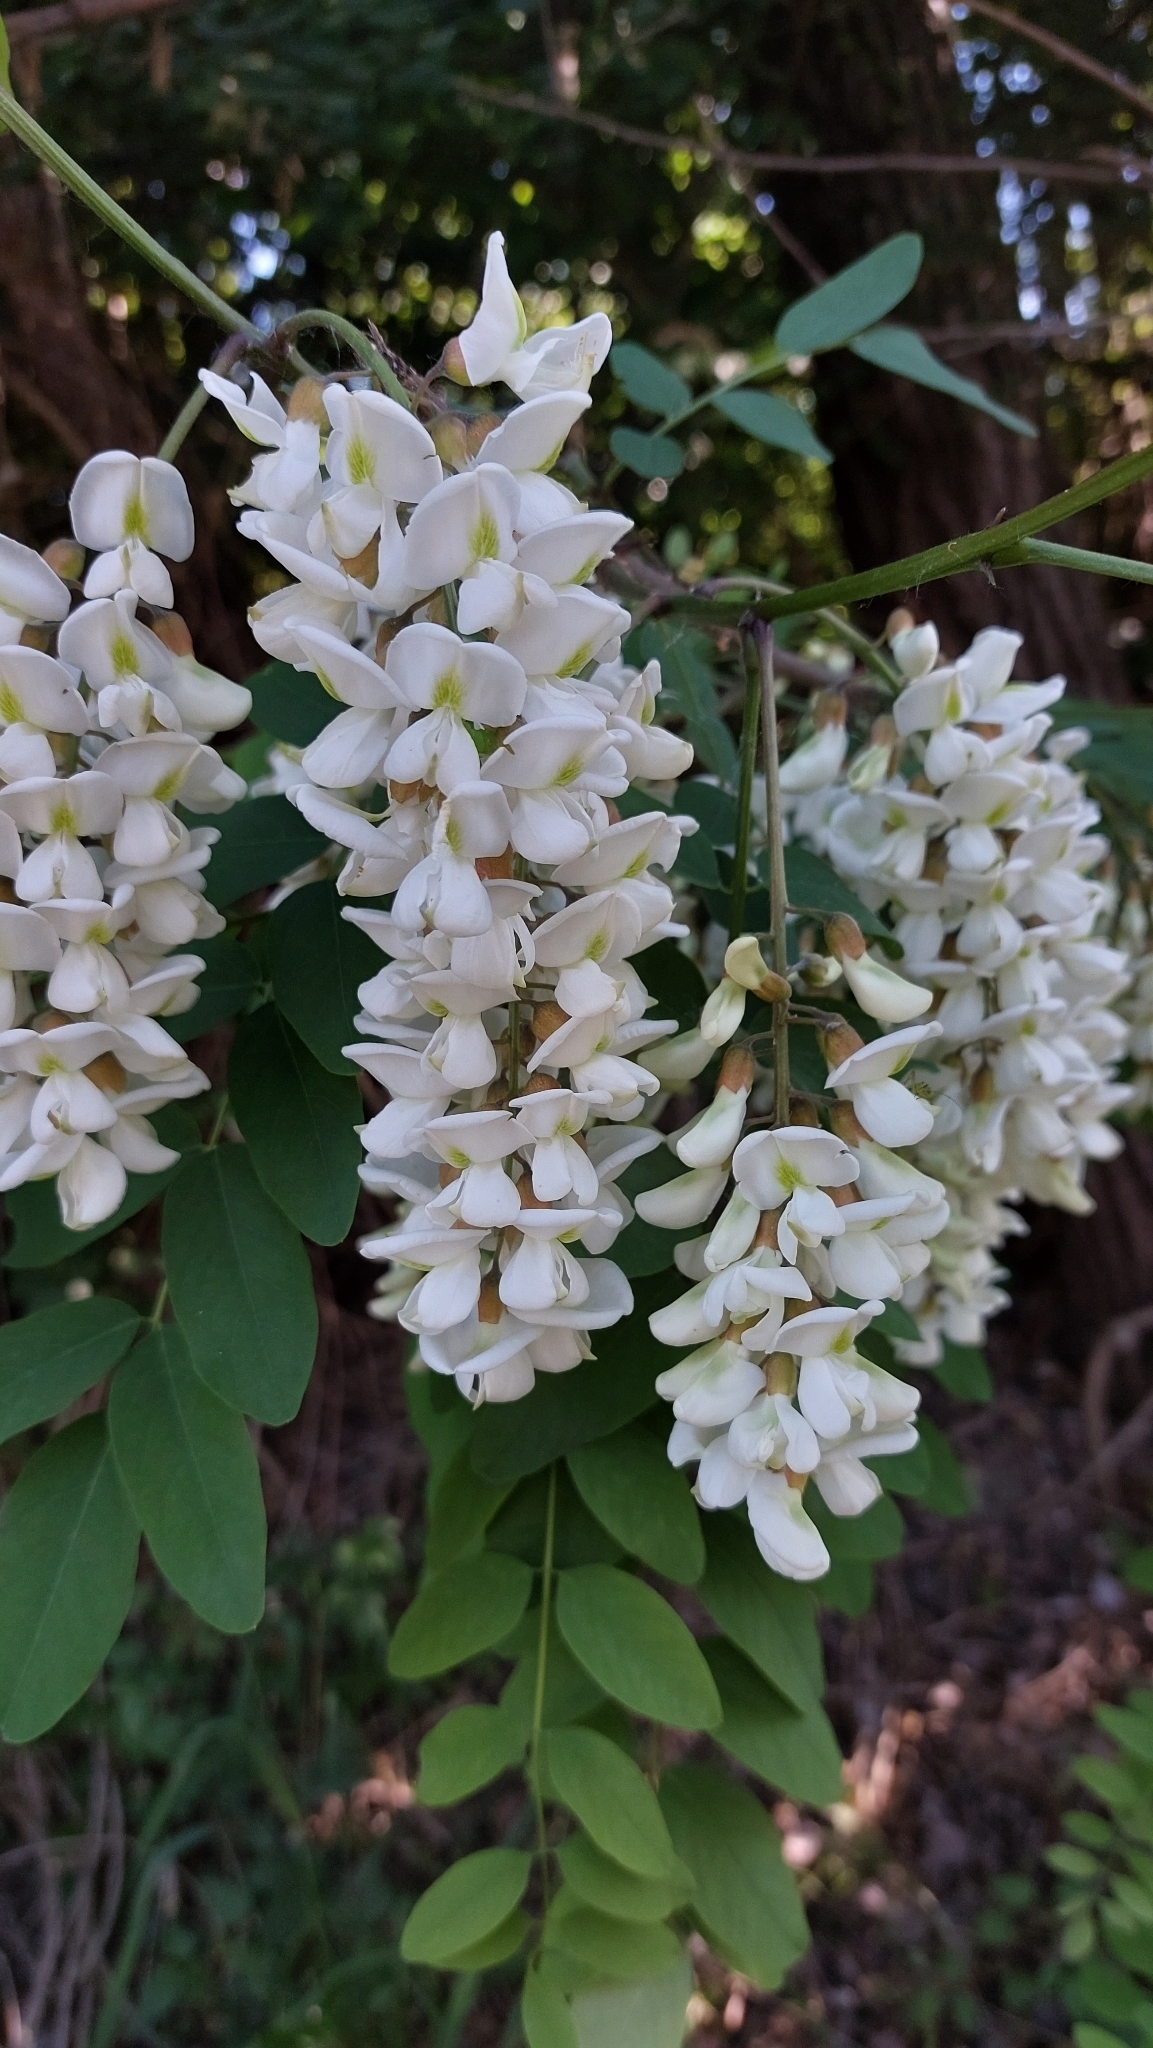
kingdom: Plantae
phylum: Tracheophyta
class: Magnoliopsida
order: Fabales
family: Fabaceae
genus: Robinia
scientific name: Robinia pseudoacacia
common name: Black locust
